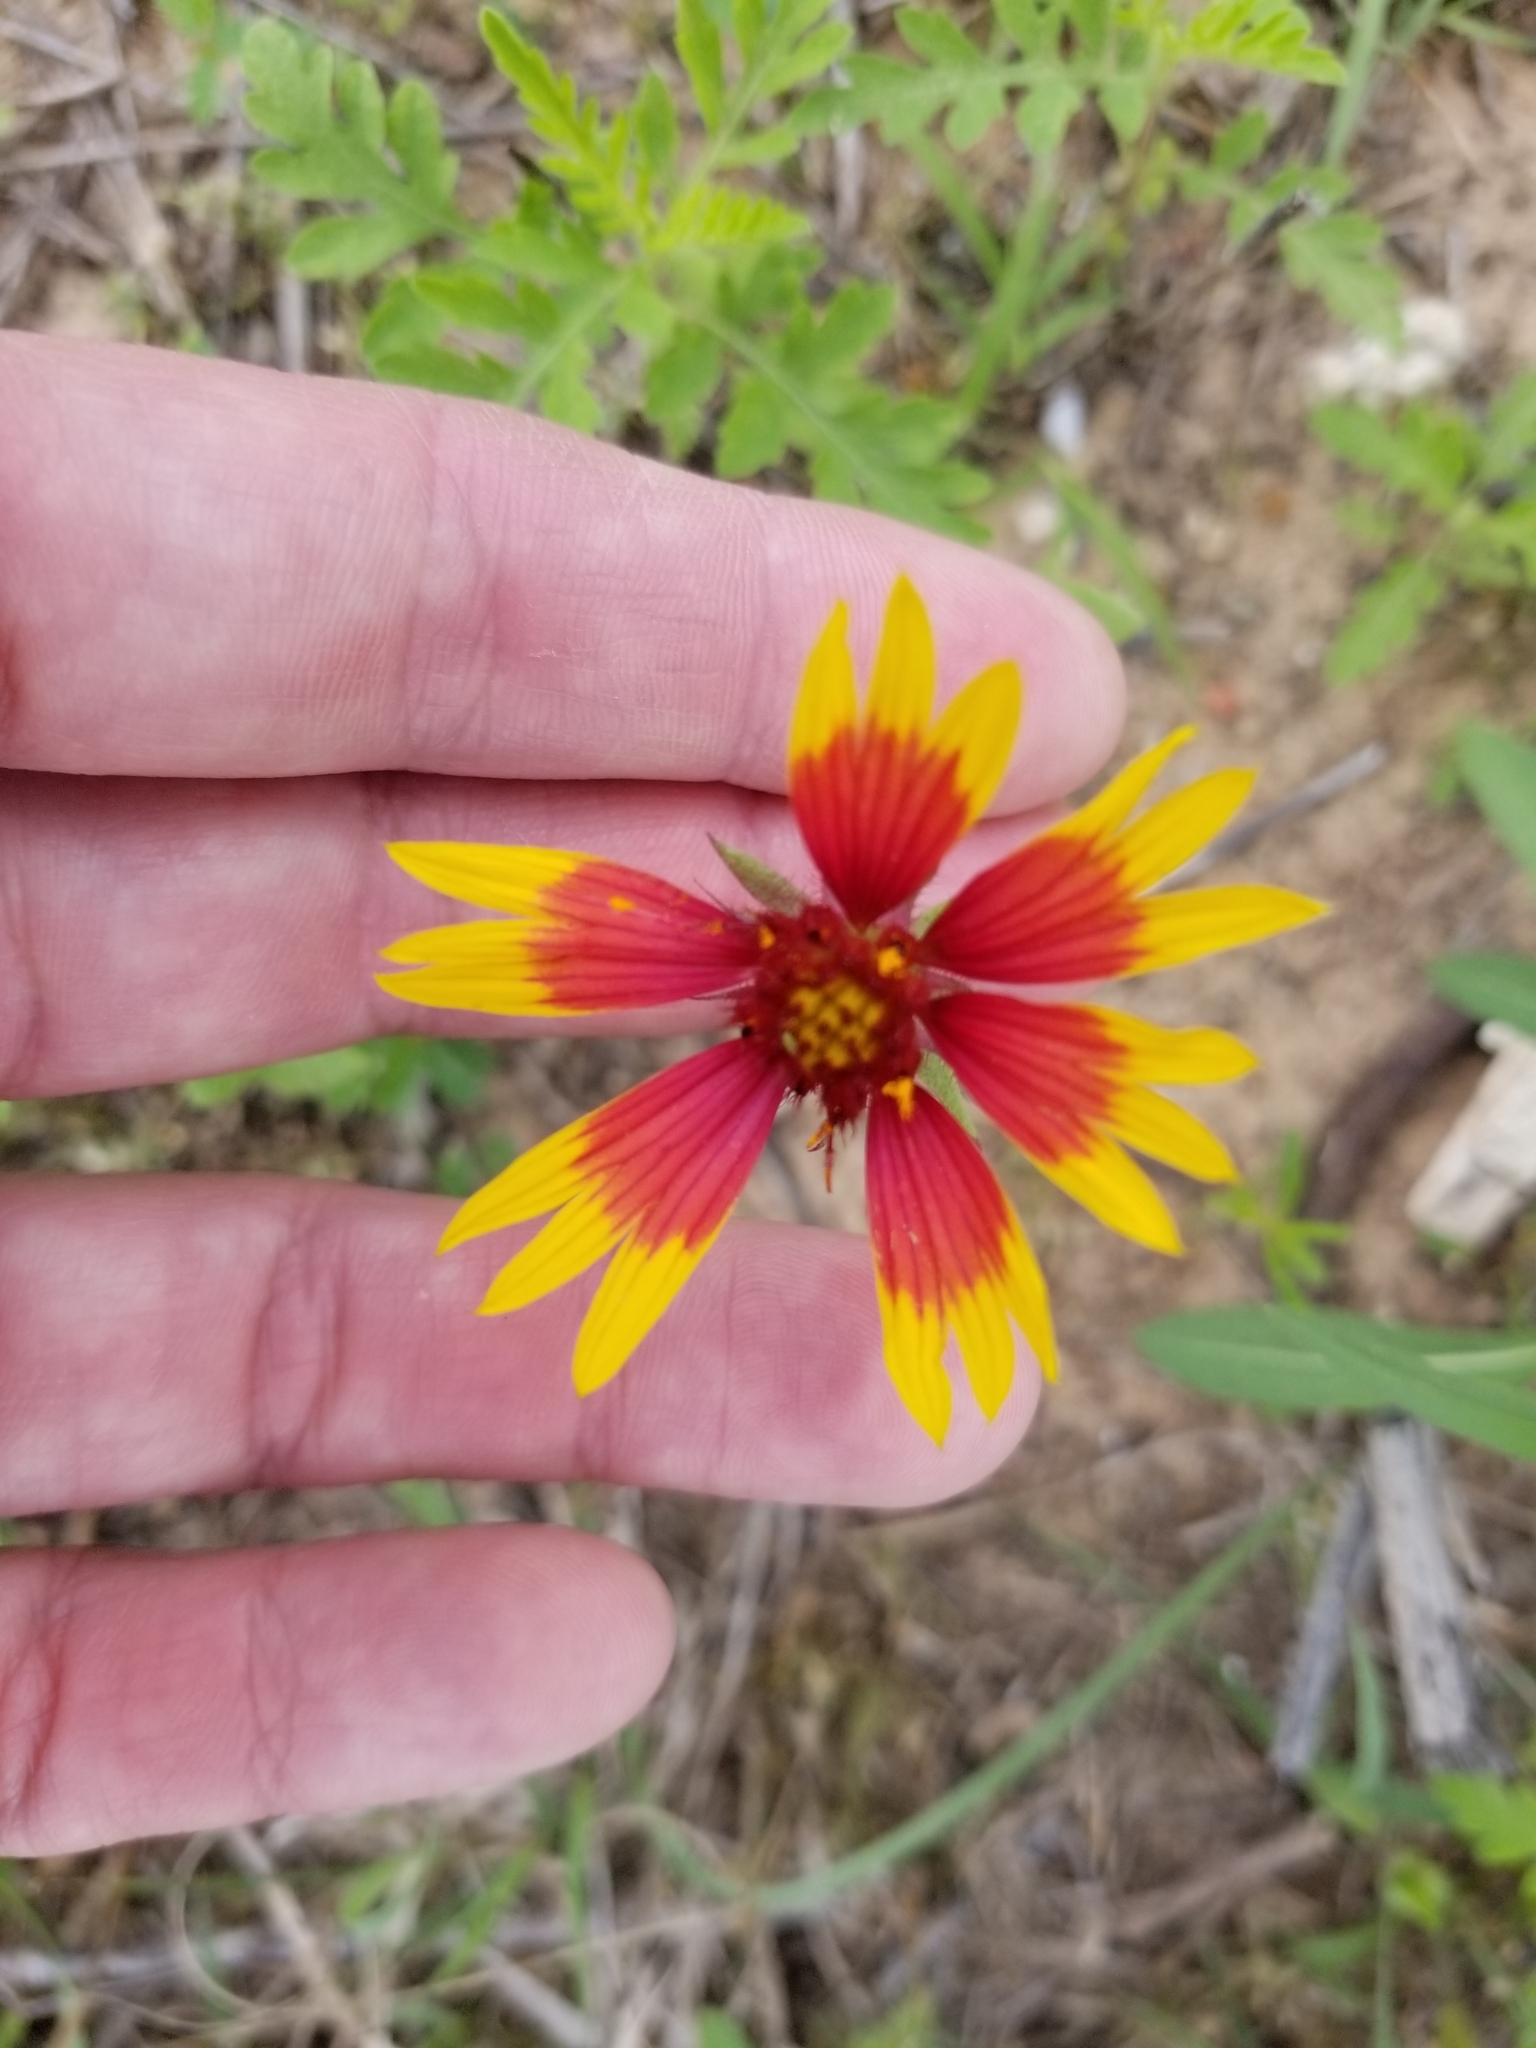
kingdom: Plantae
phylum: Tracheophyta
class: Magnoliopsida
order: Asterales
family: Asteraceae
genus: Gaillardia
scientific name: Gaillardia pulchella
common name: Firewheel
